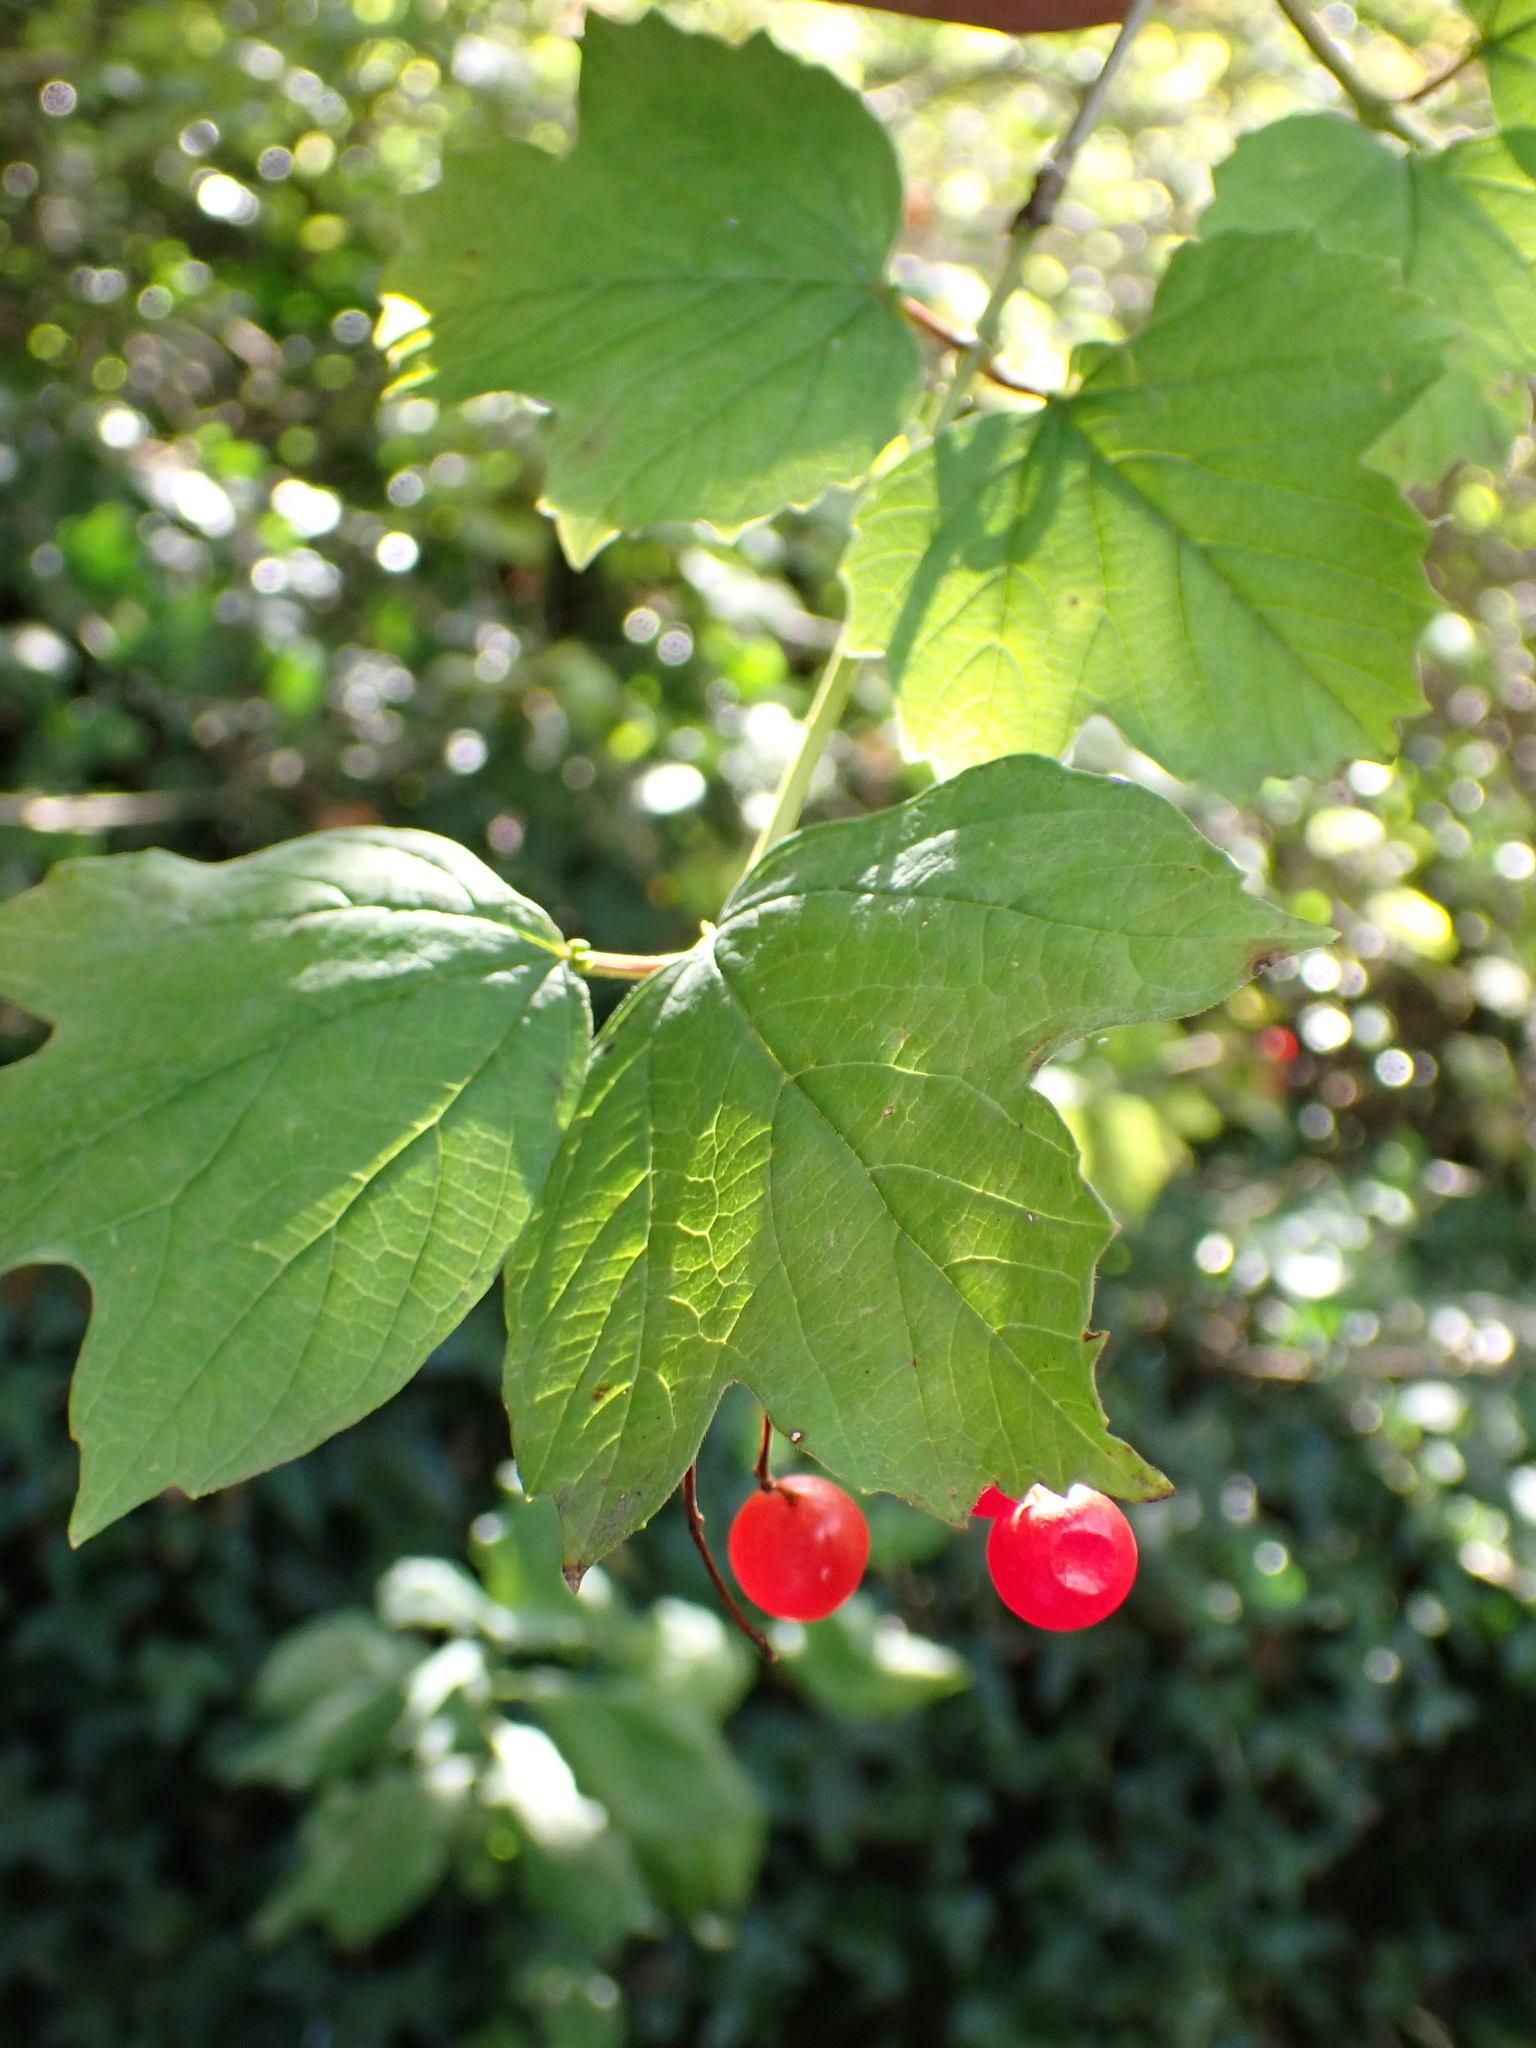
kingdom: Plantae
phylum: Tracheophyta
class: Magnoliopsida
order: Dipsacales
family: Viburnaceae
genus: Viburnum
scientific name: Viburnum opulus
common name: Guelder-rose
